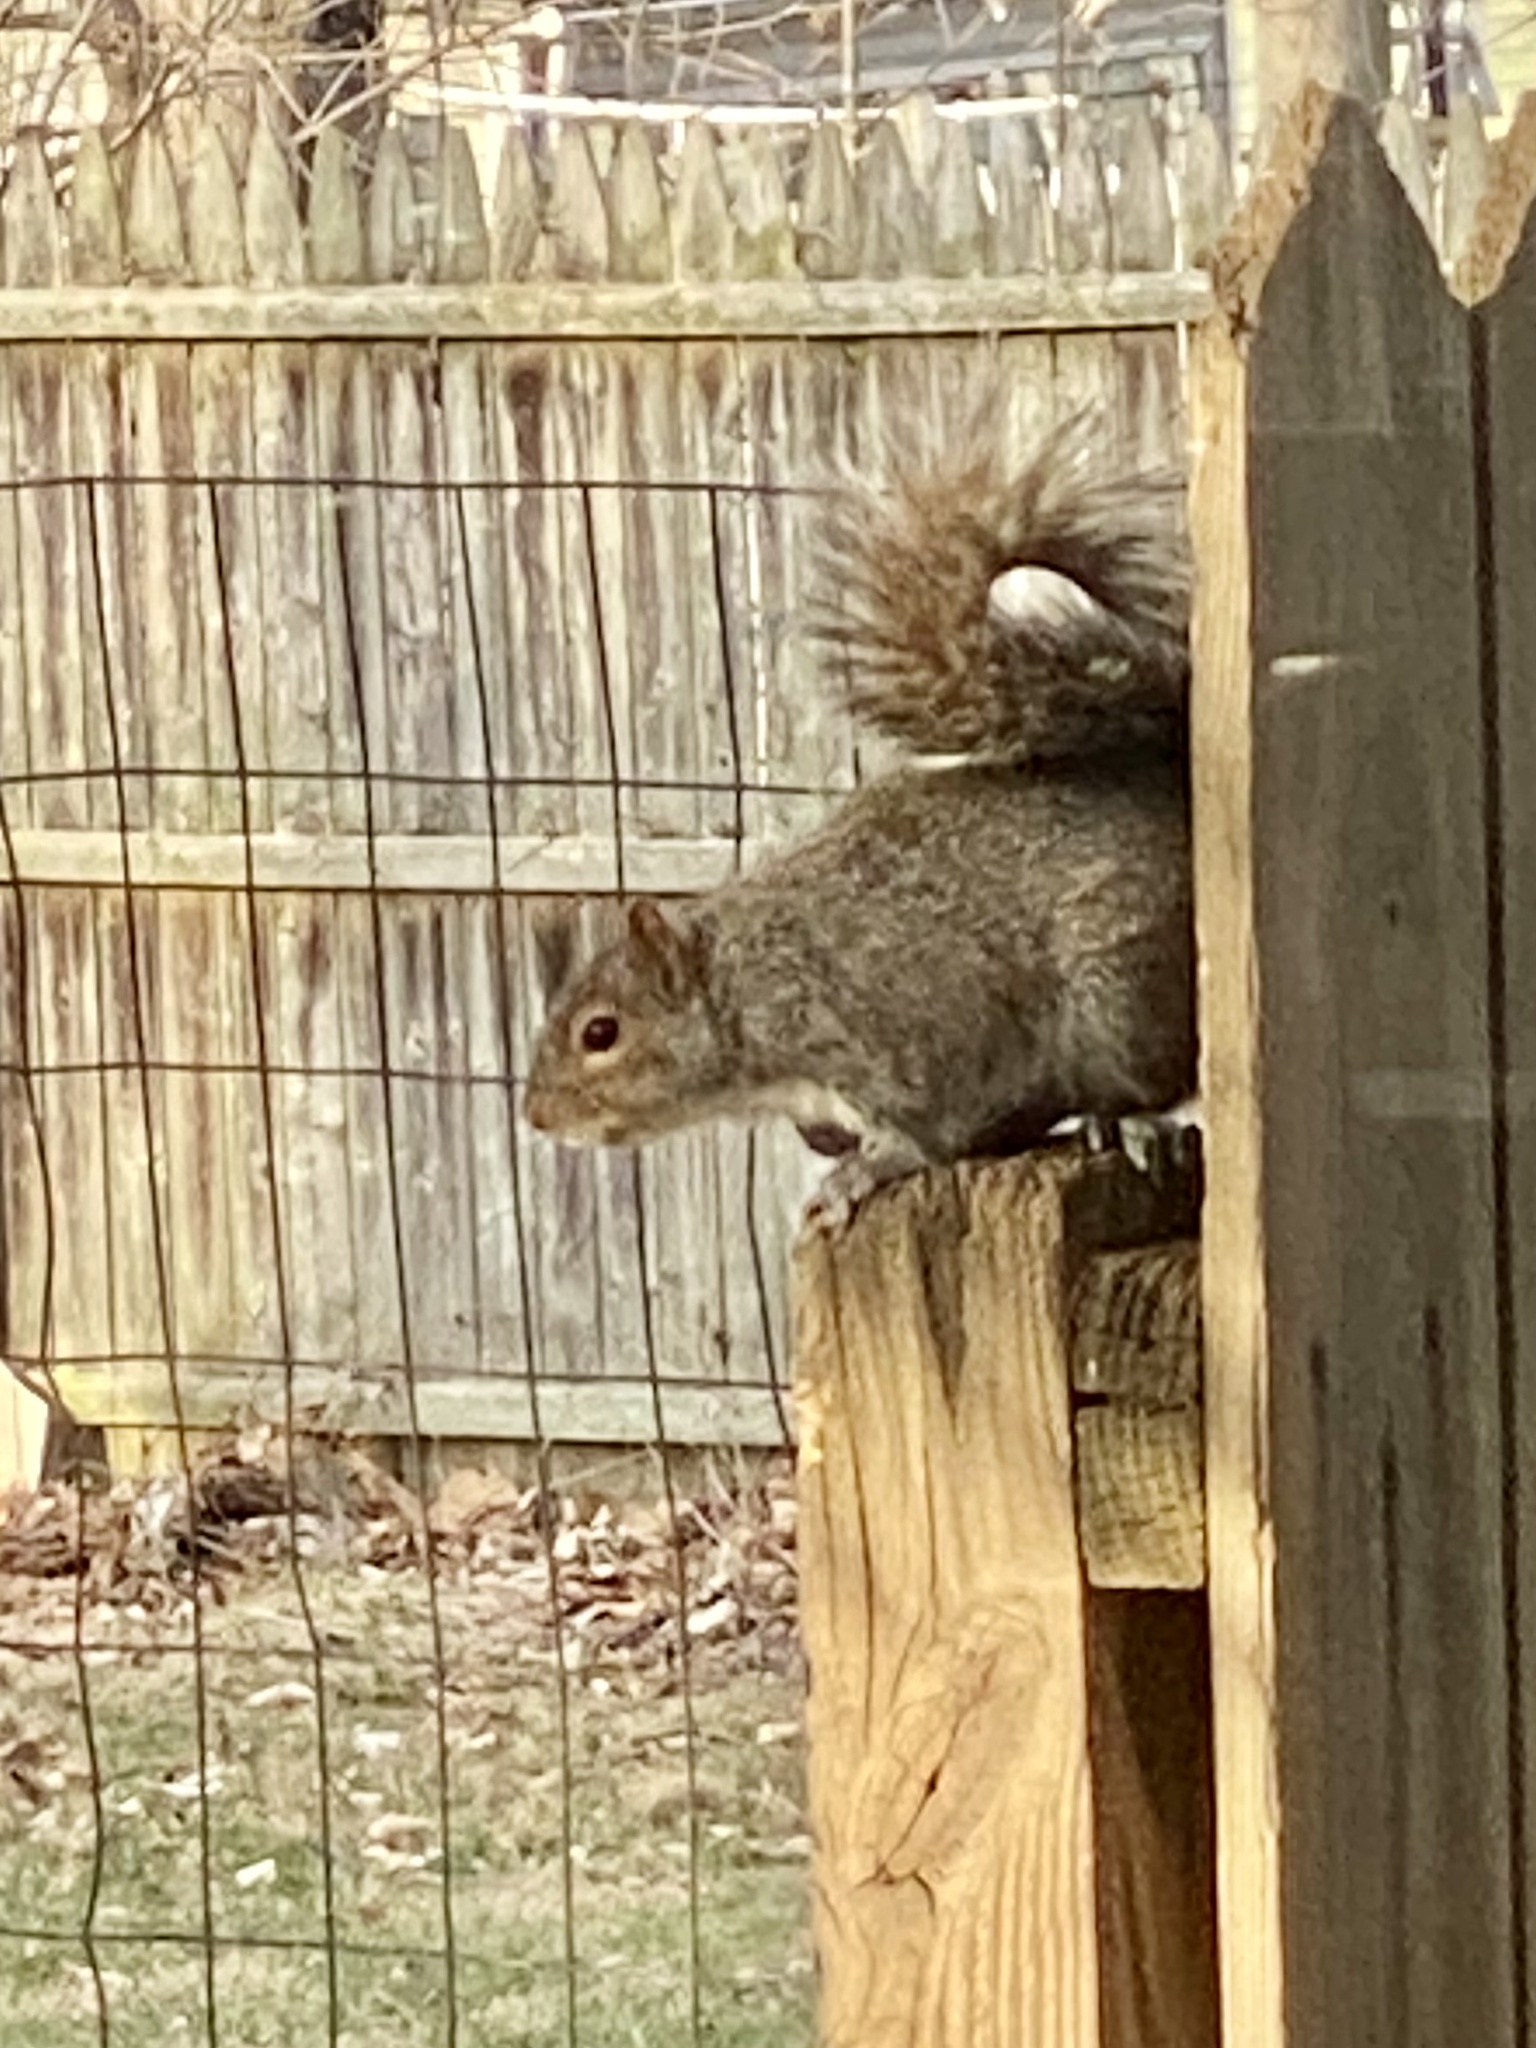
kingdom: Animalia
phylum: Chordata
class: Mammalia
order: Rodentia
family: Sciuridae
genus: Sciurus
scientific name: Sciurus carolinensis
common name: Eastern gray squirrel
